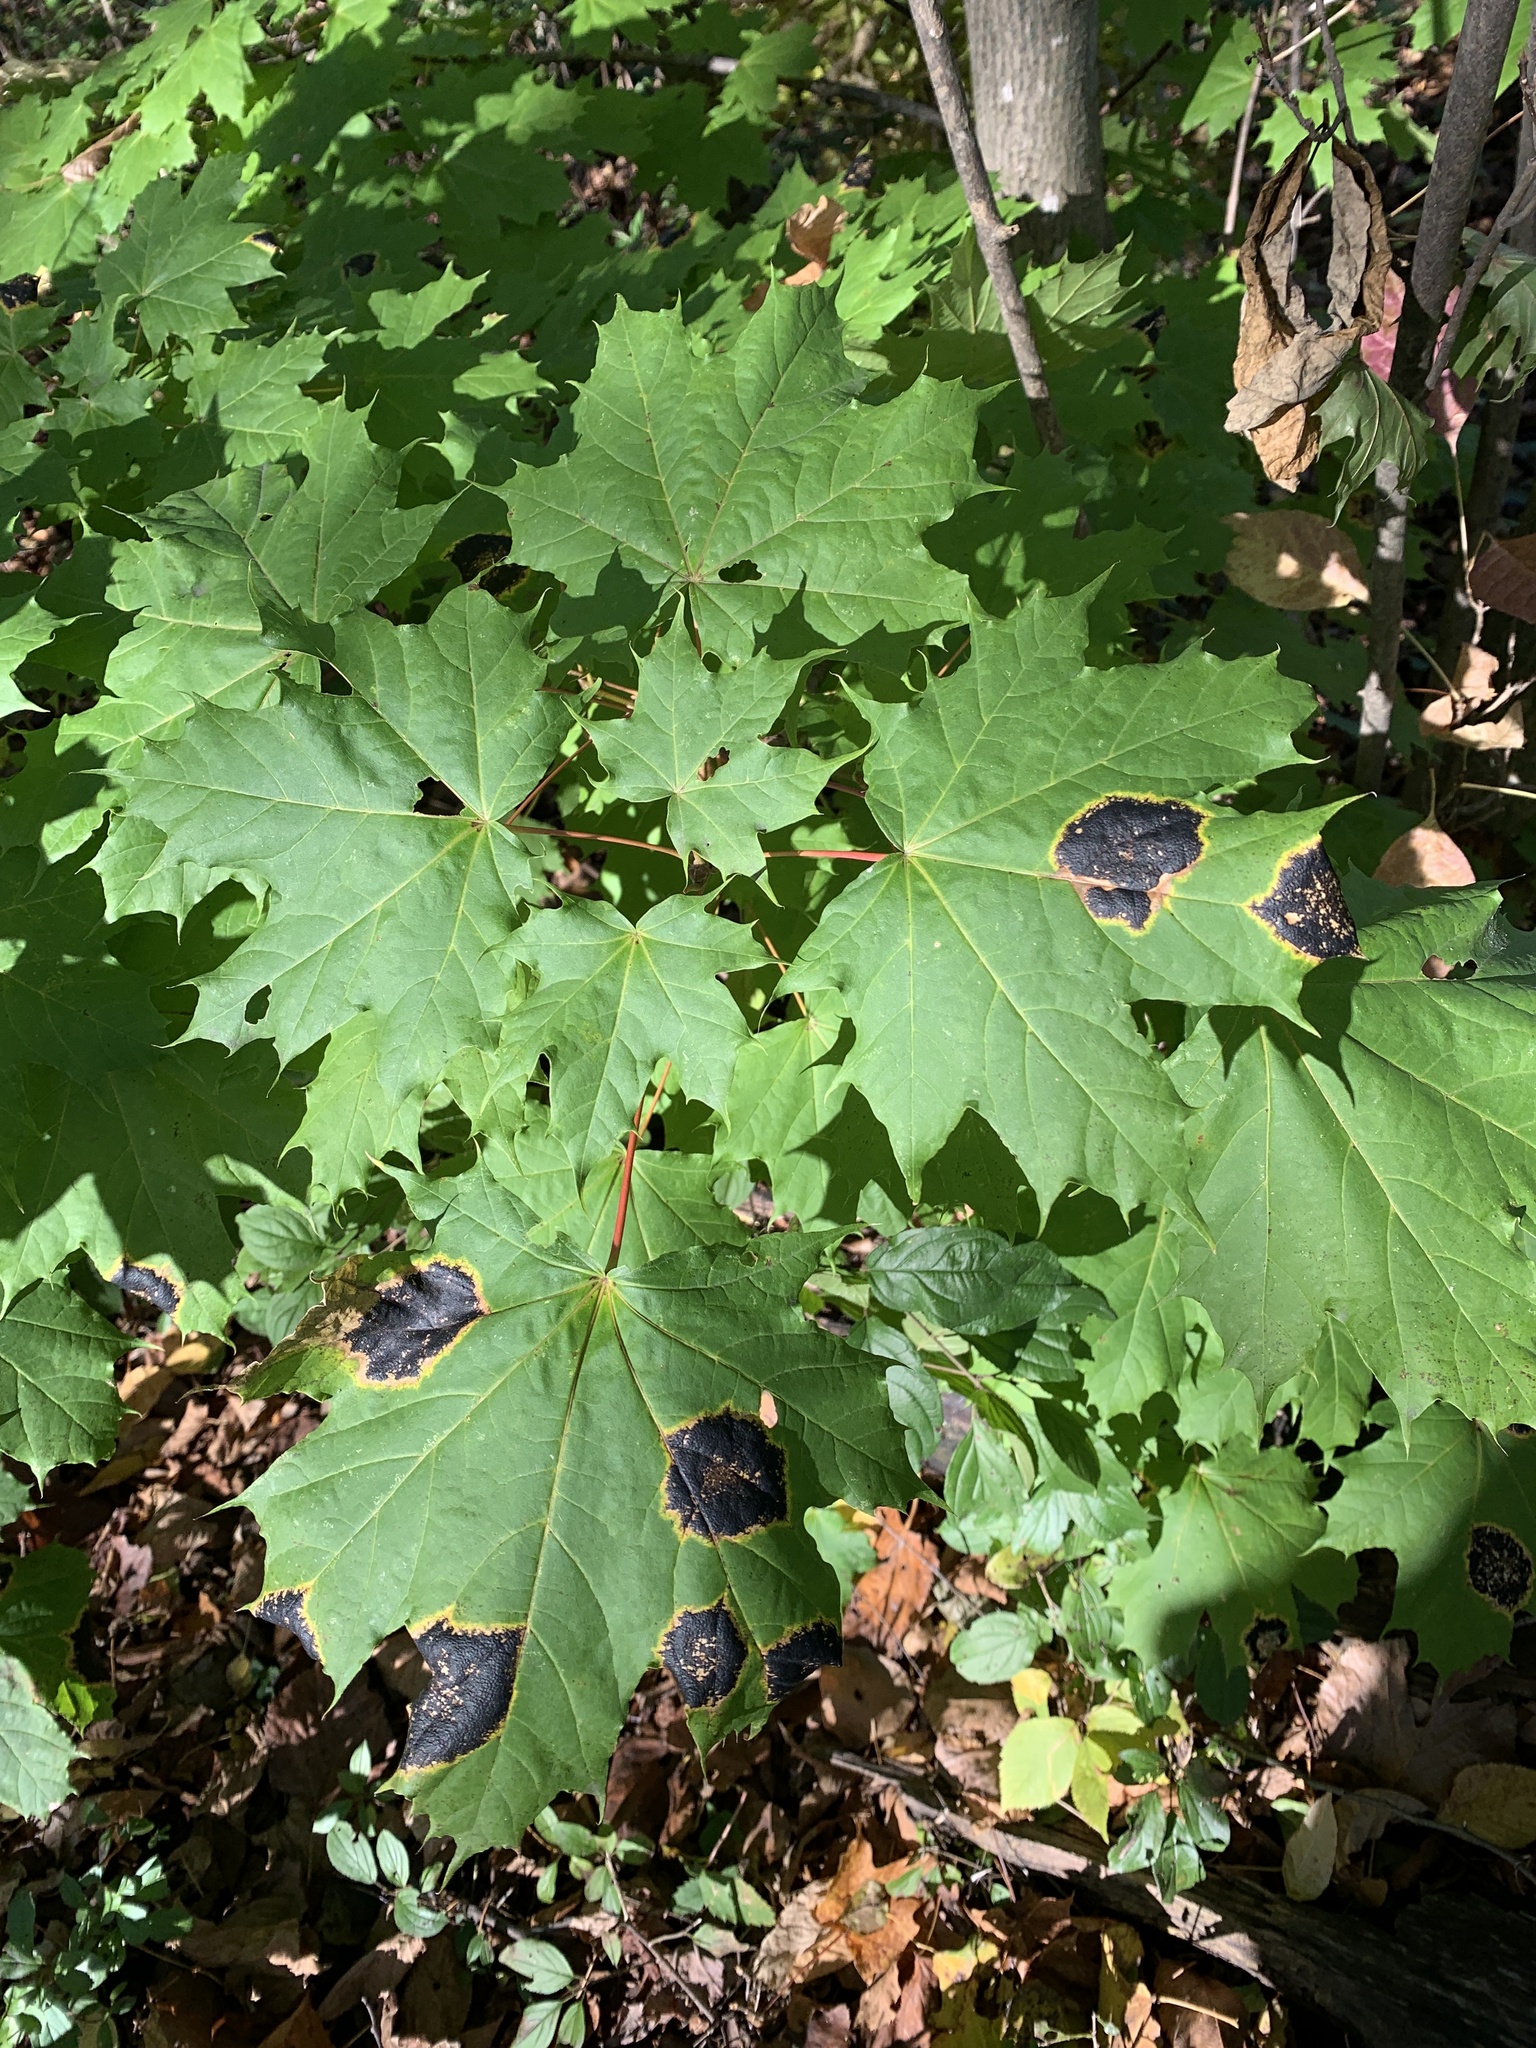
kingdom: Fungi
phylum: Ascomycota
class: Leotiomycetes
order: Rhytismatales
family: Rhytismataceae
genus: Rhytisma
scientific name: Rhytisma acerinum
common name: European tar spot
